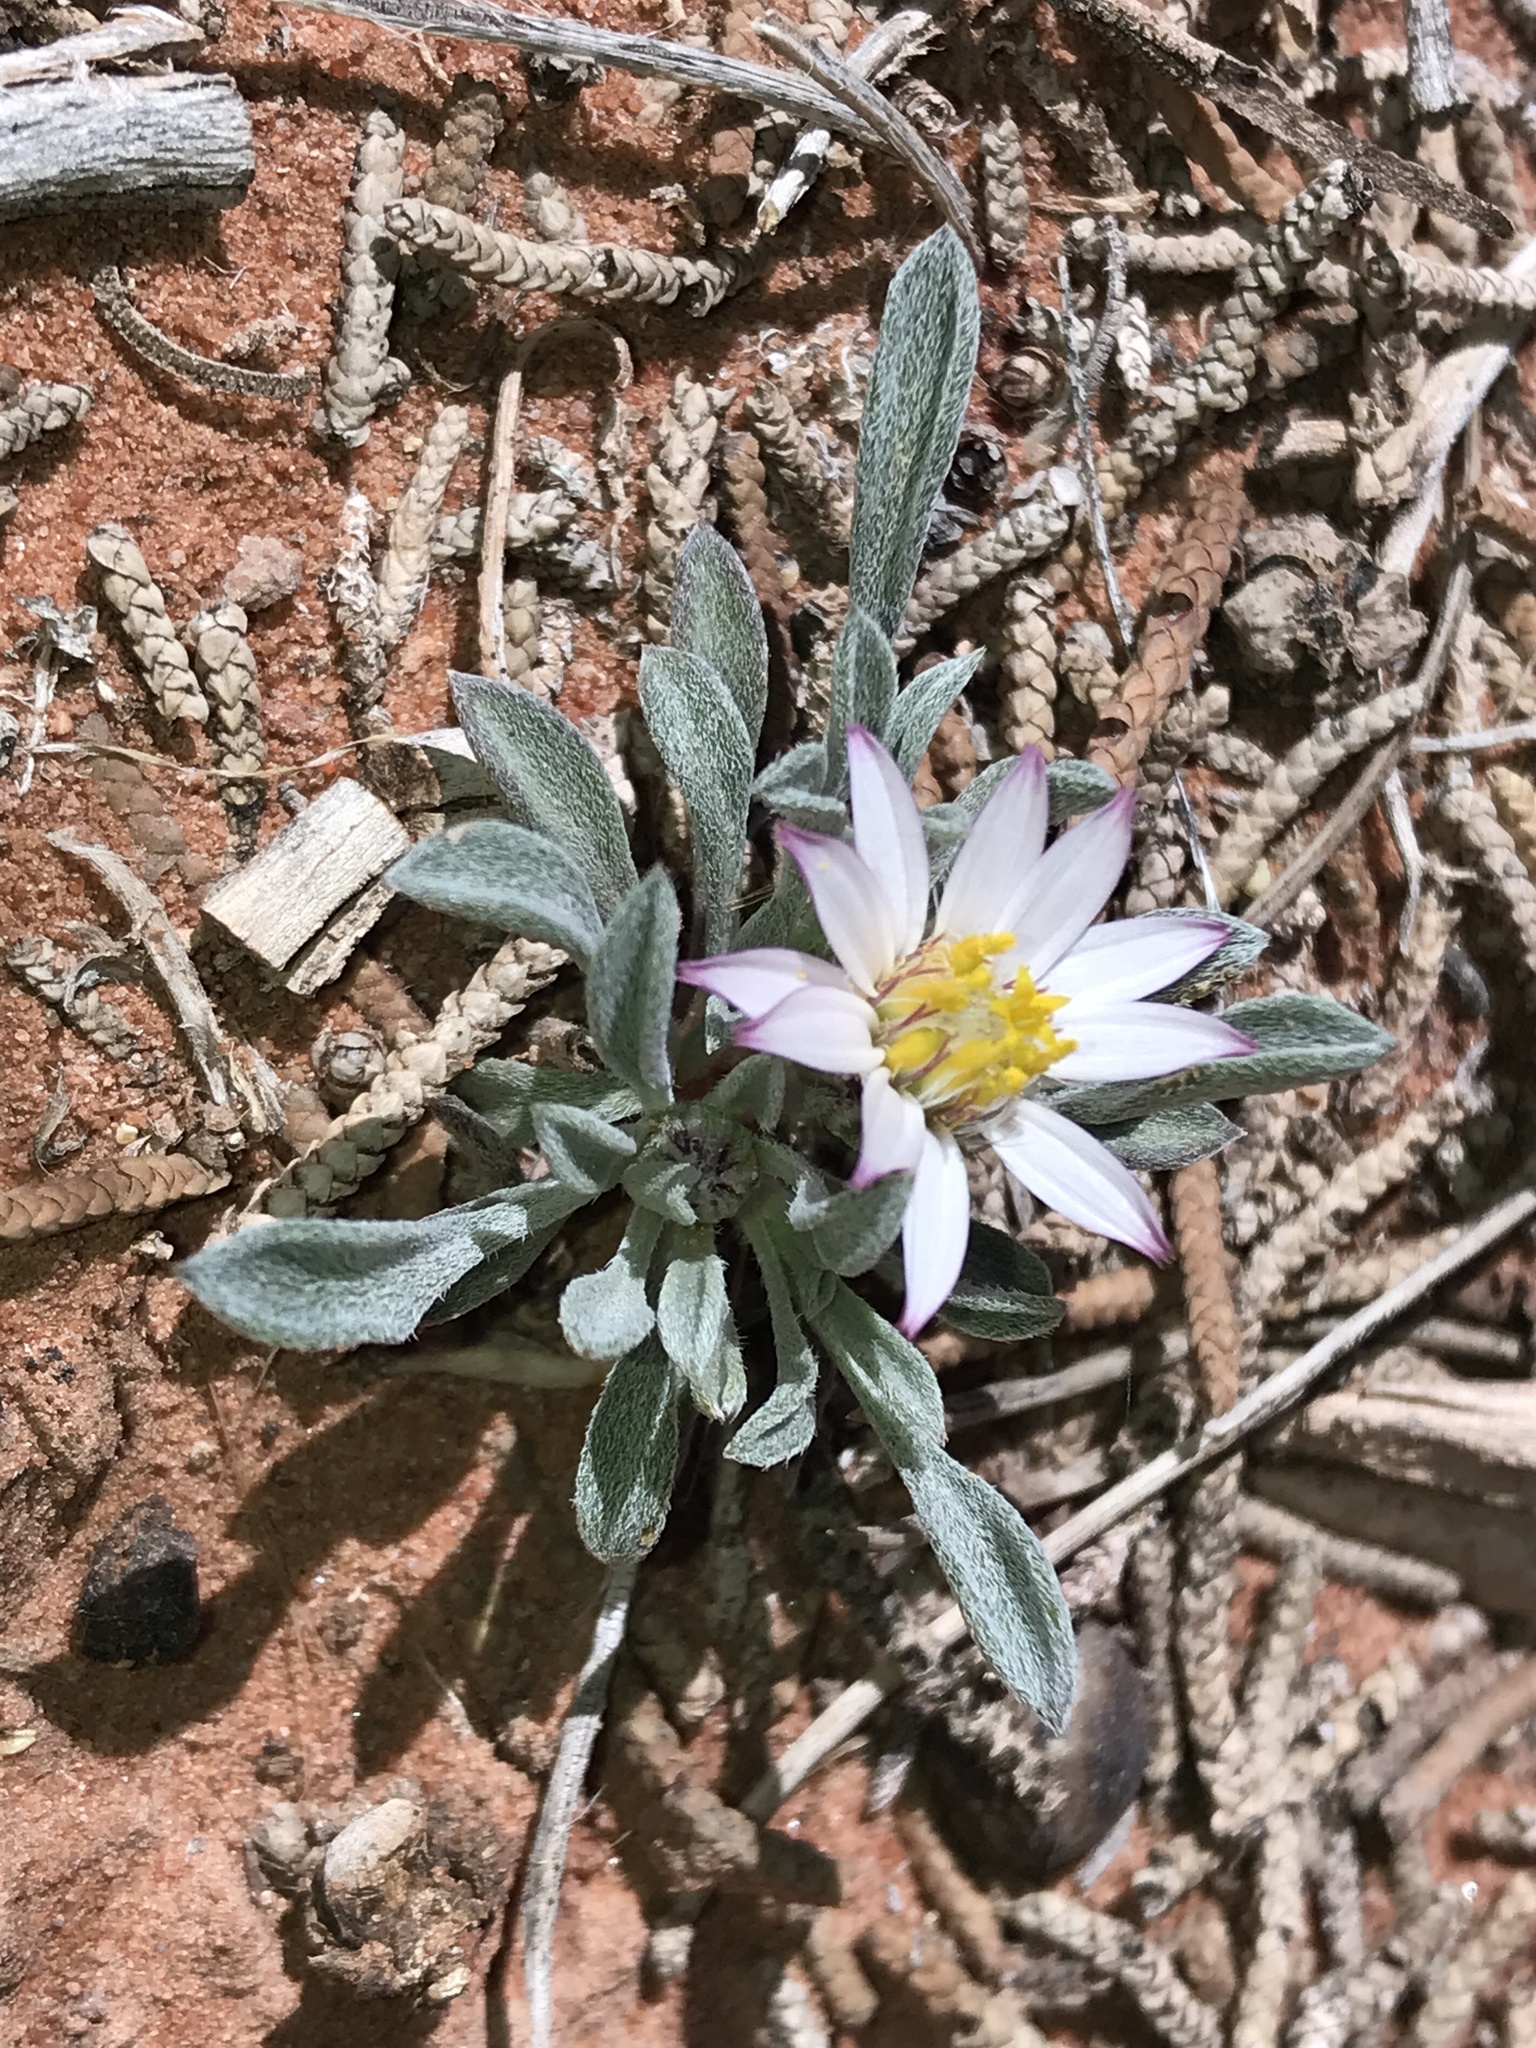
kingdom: Plantae
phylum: Tracheophyta
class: Magnoliopsida
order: Asterales
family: Asteraceae
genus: Townsendia
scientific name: Townsendia incana
